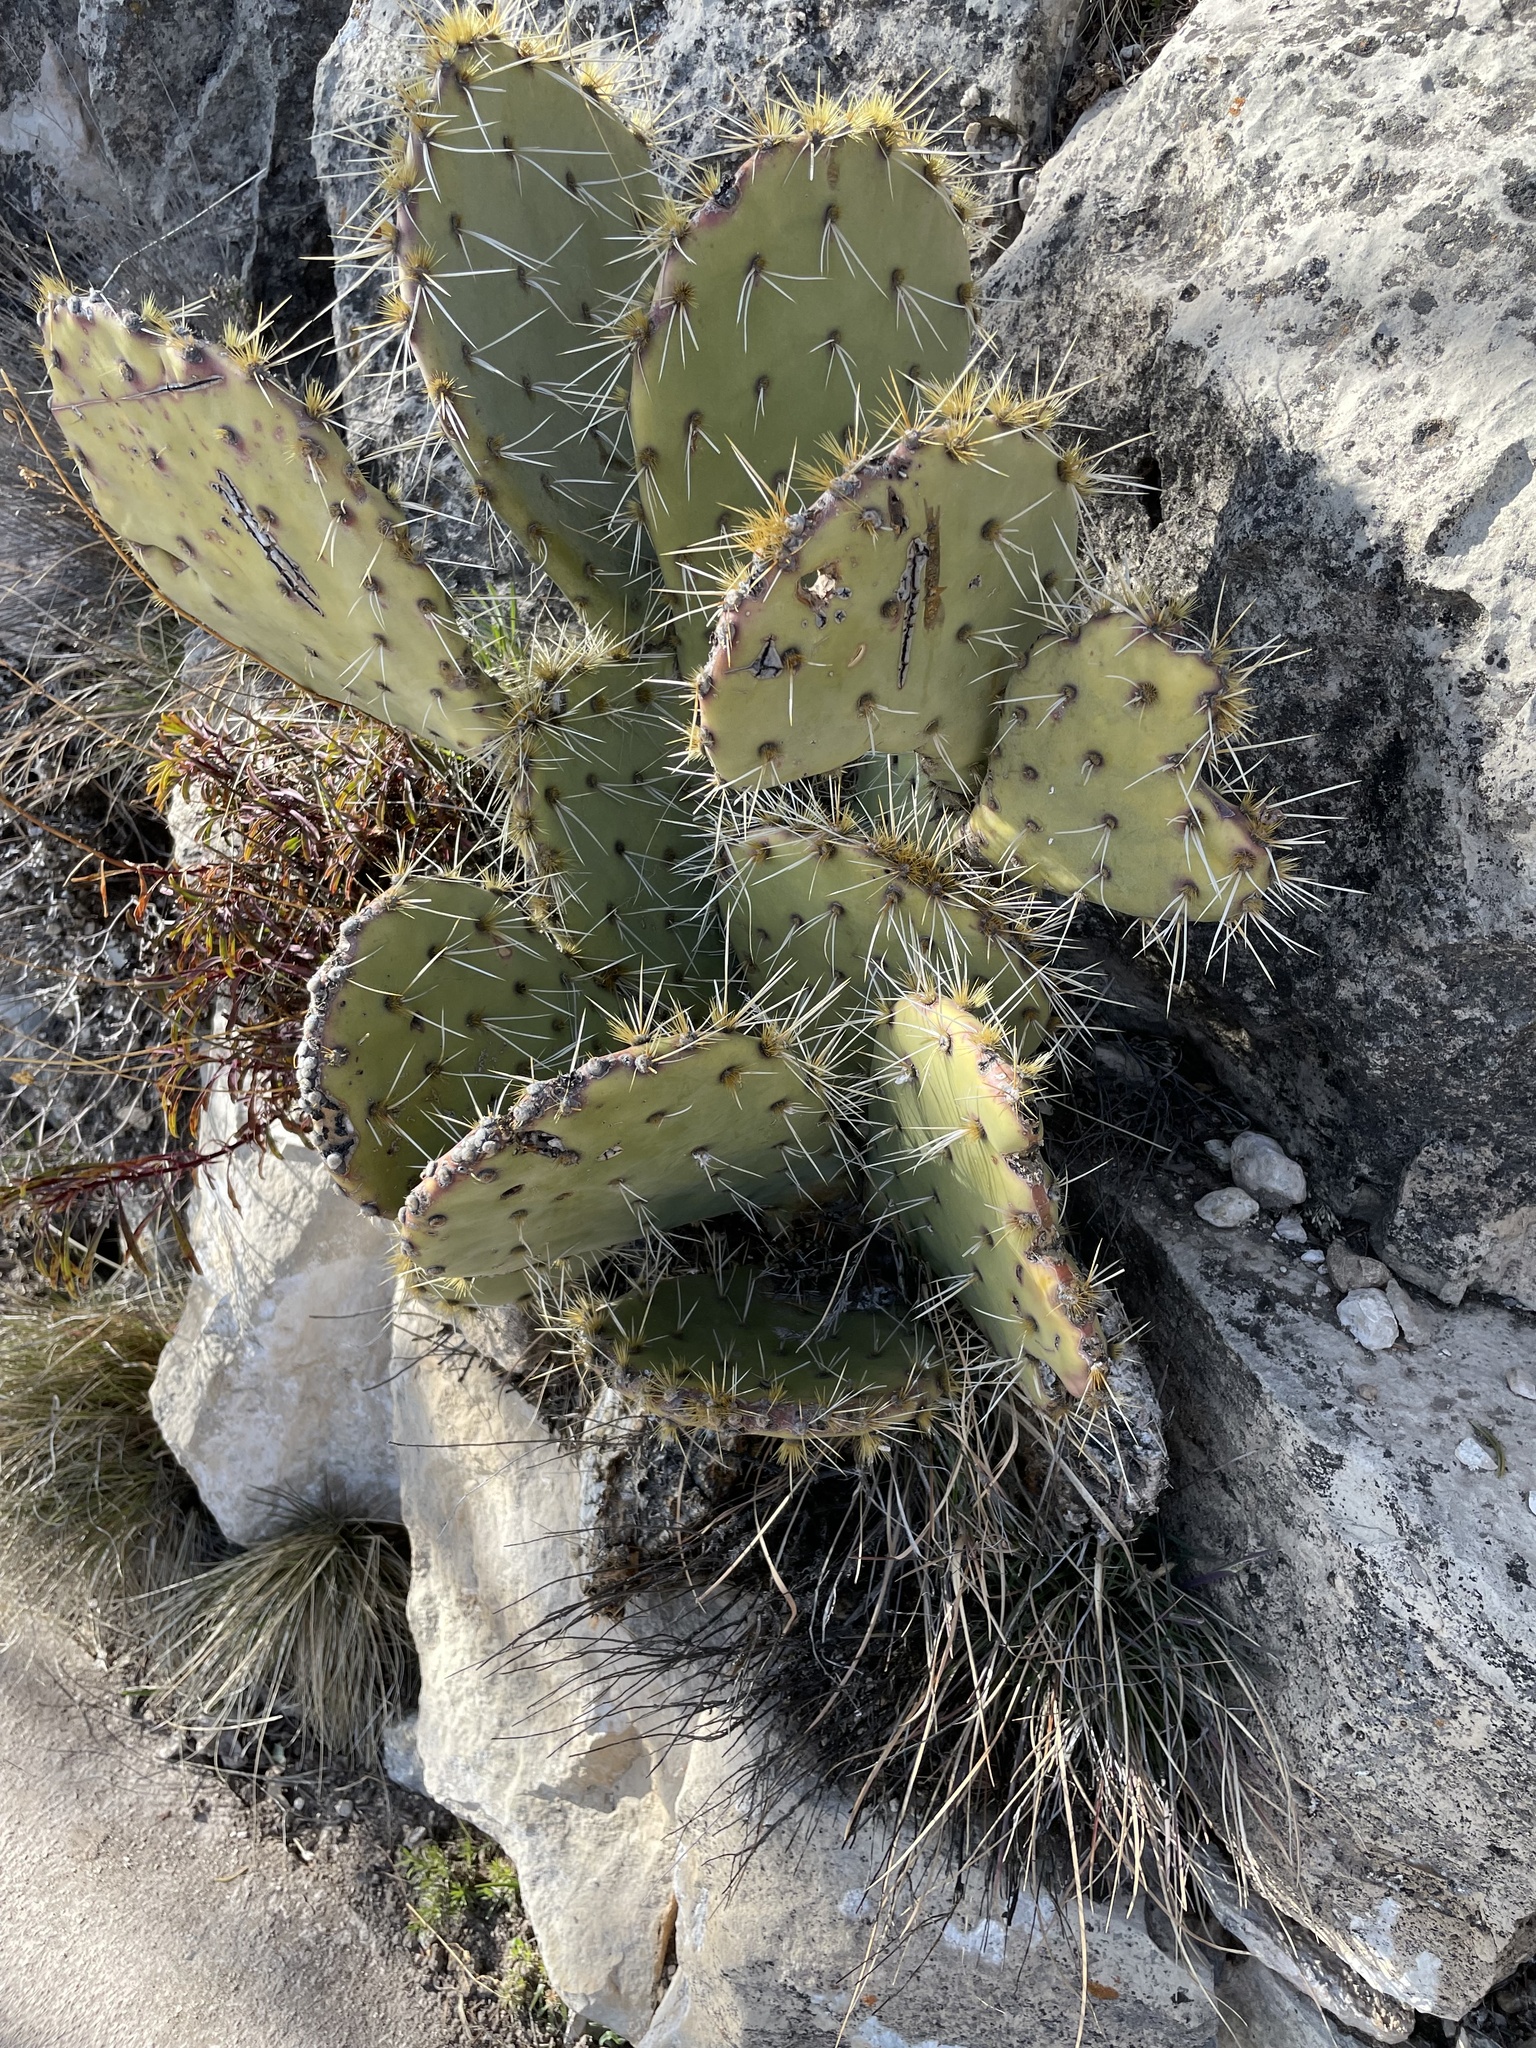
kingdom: Plantae
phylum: Tracheophyta
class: Magnoliopsida
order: Caryophyllales
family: Cactaceae
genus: Opuntia
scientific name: Opuntia phaeacantha
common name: New mexico prickly-pear
